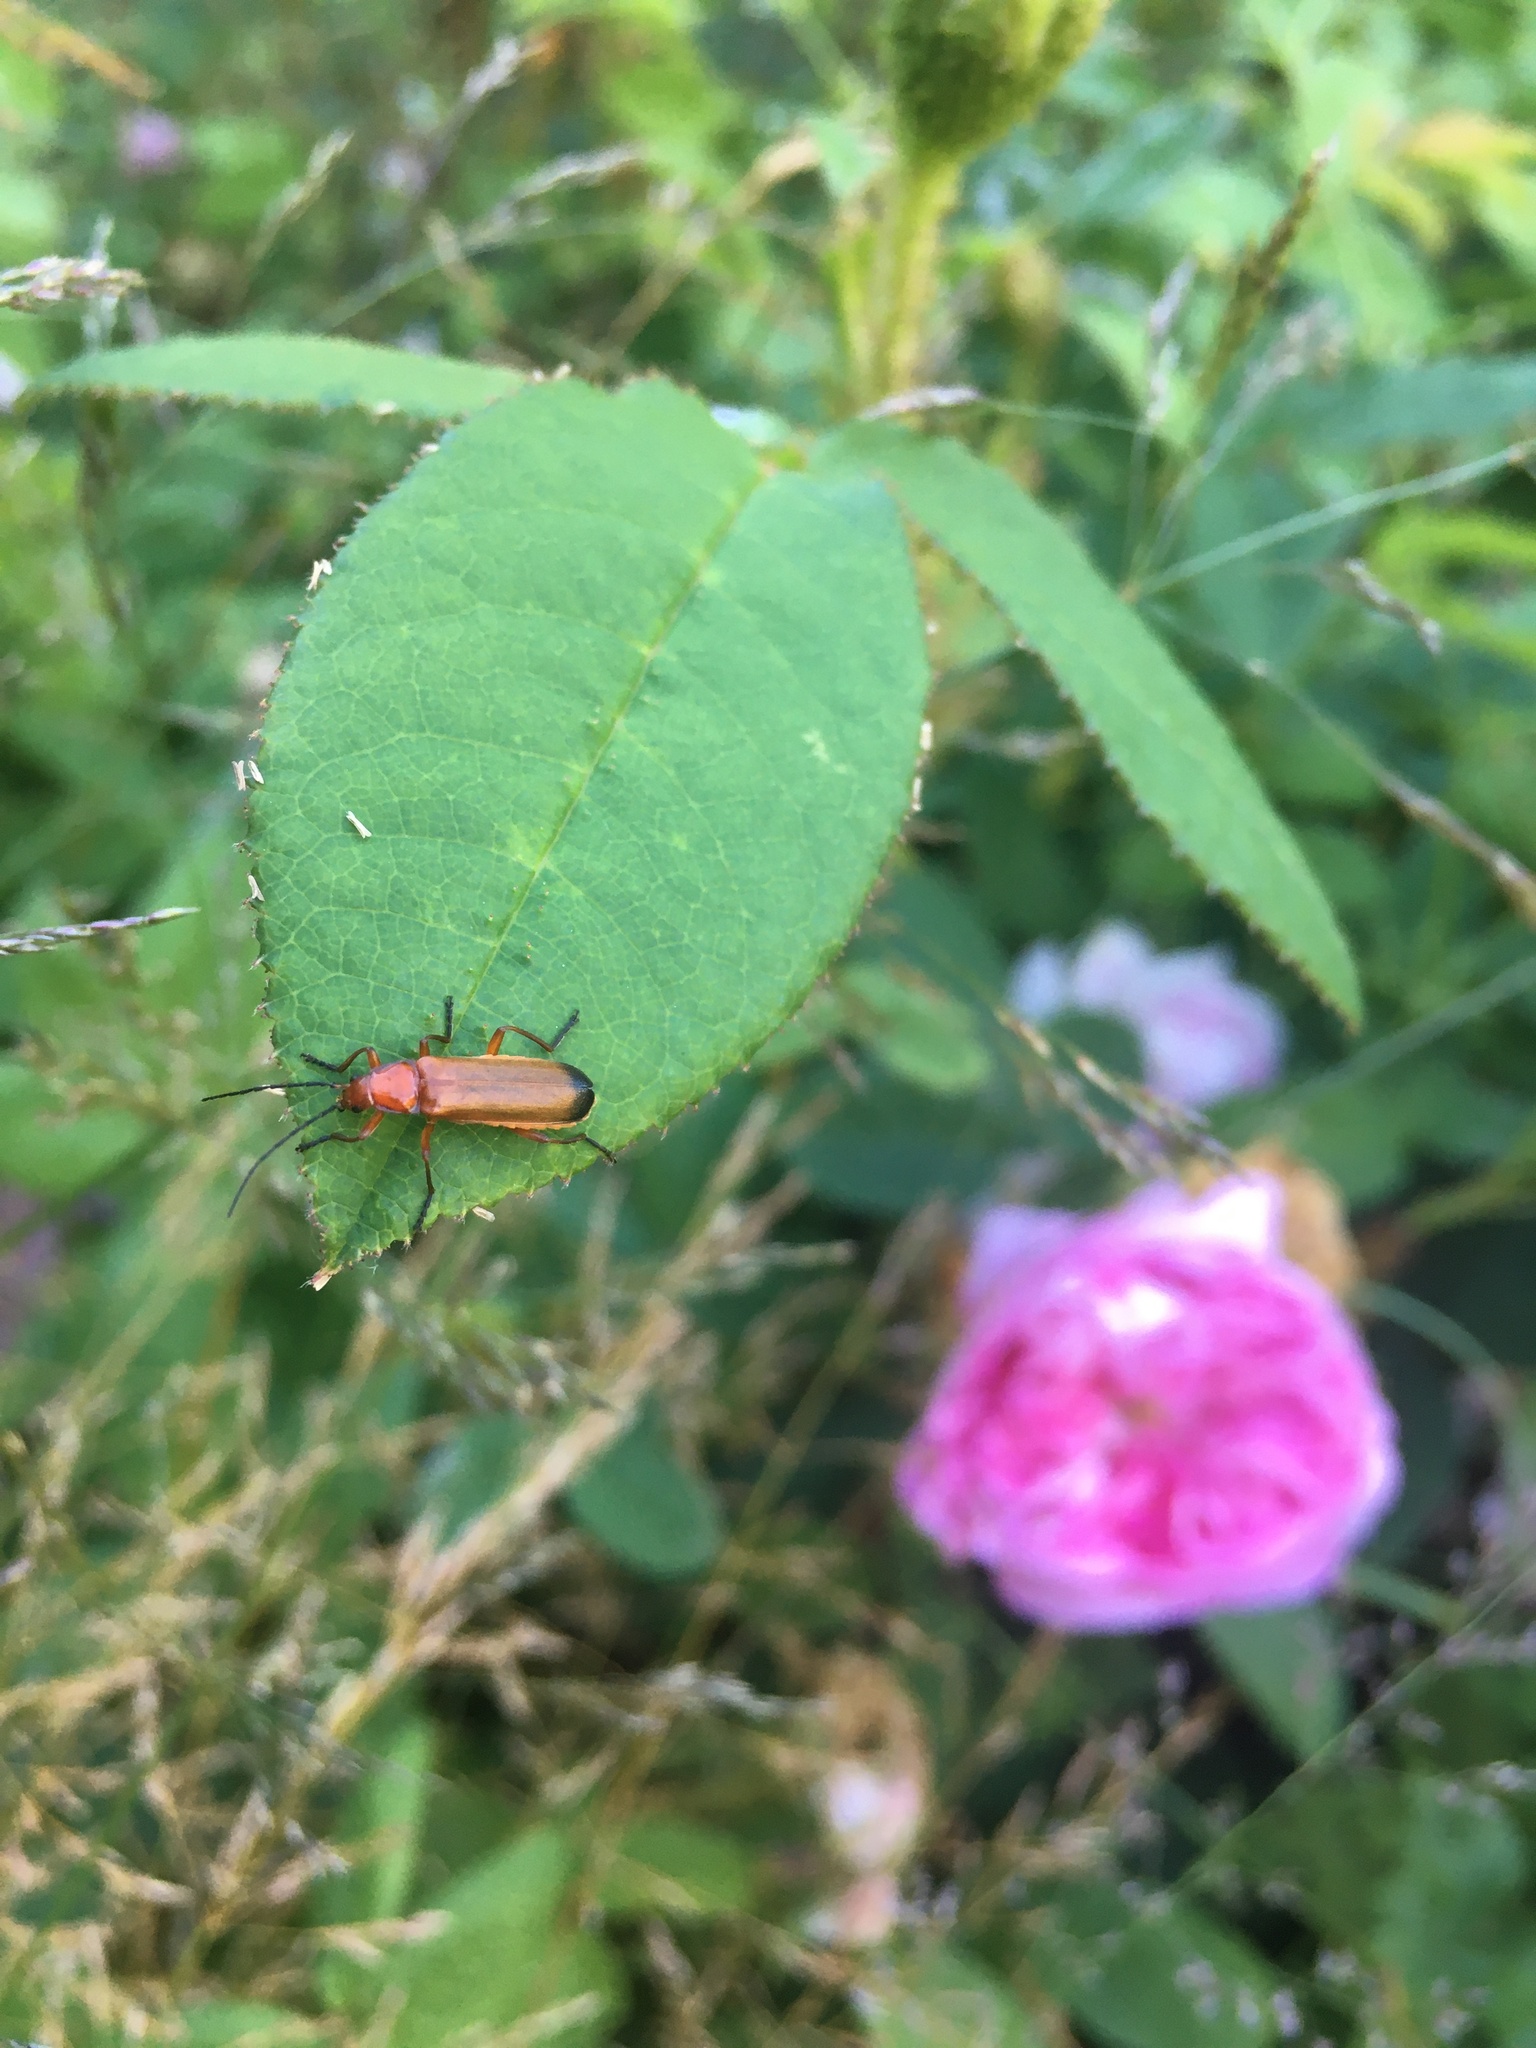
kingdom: Animalia
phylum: Arthropoda
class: Insecta
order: Coleoptera
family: Cantharidae
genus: Rhagonycha
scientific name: Rhagonycha fulva
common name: Common red soldier beetle
